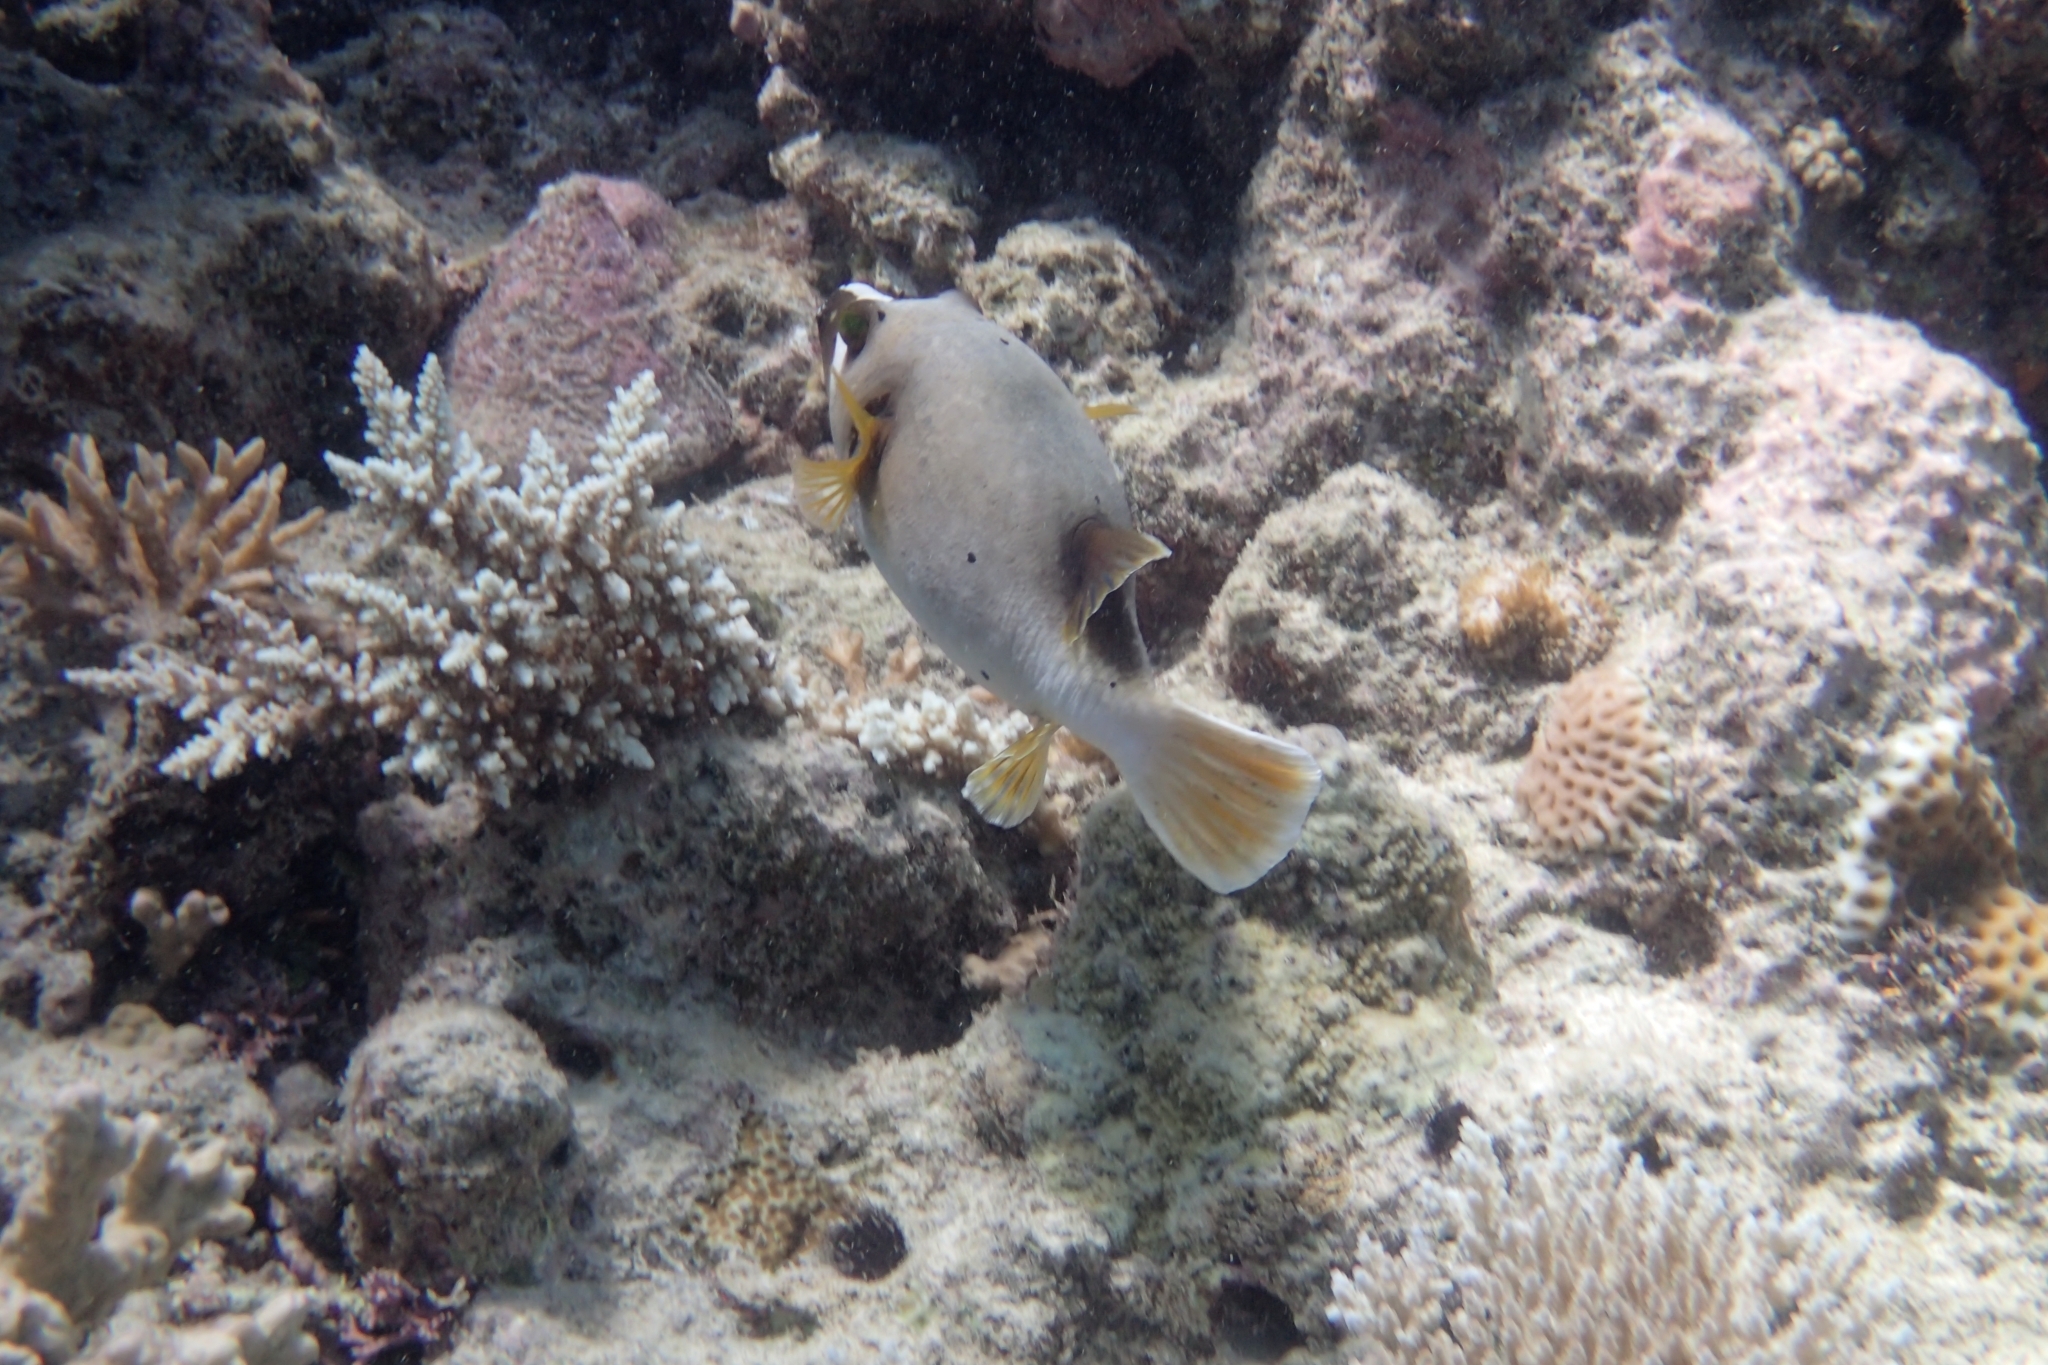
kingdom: Animalia
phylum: Chordata
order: Tetraodontiformes
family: Tetraodontidae
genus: Arothron
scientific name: Arothron nigropunctatus
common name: Black spotted blow fish
